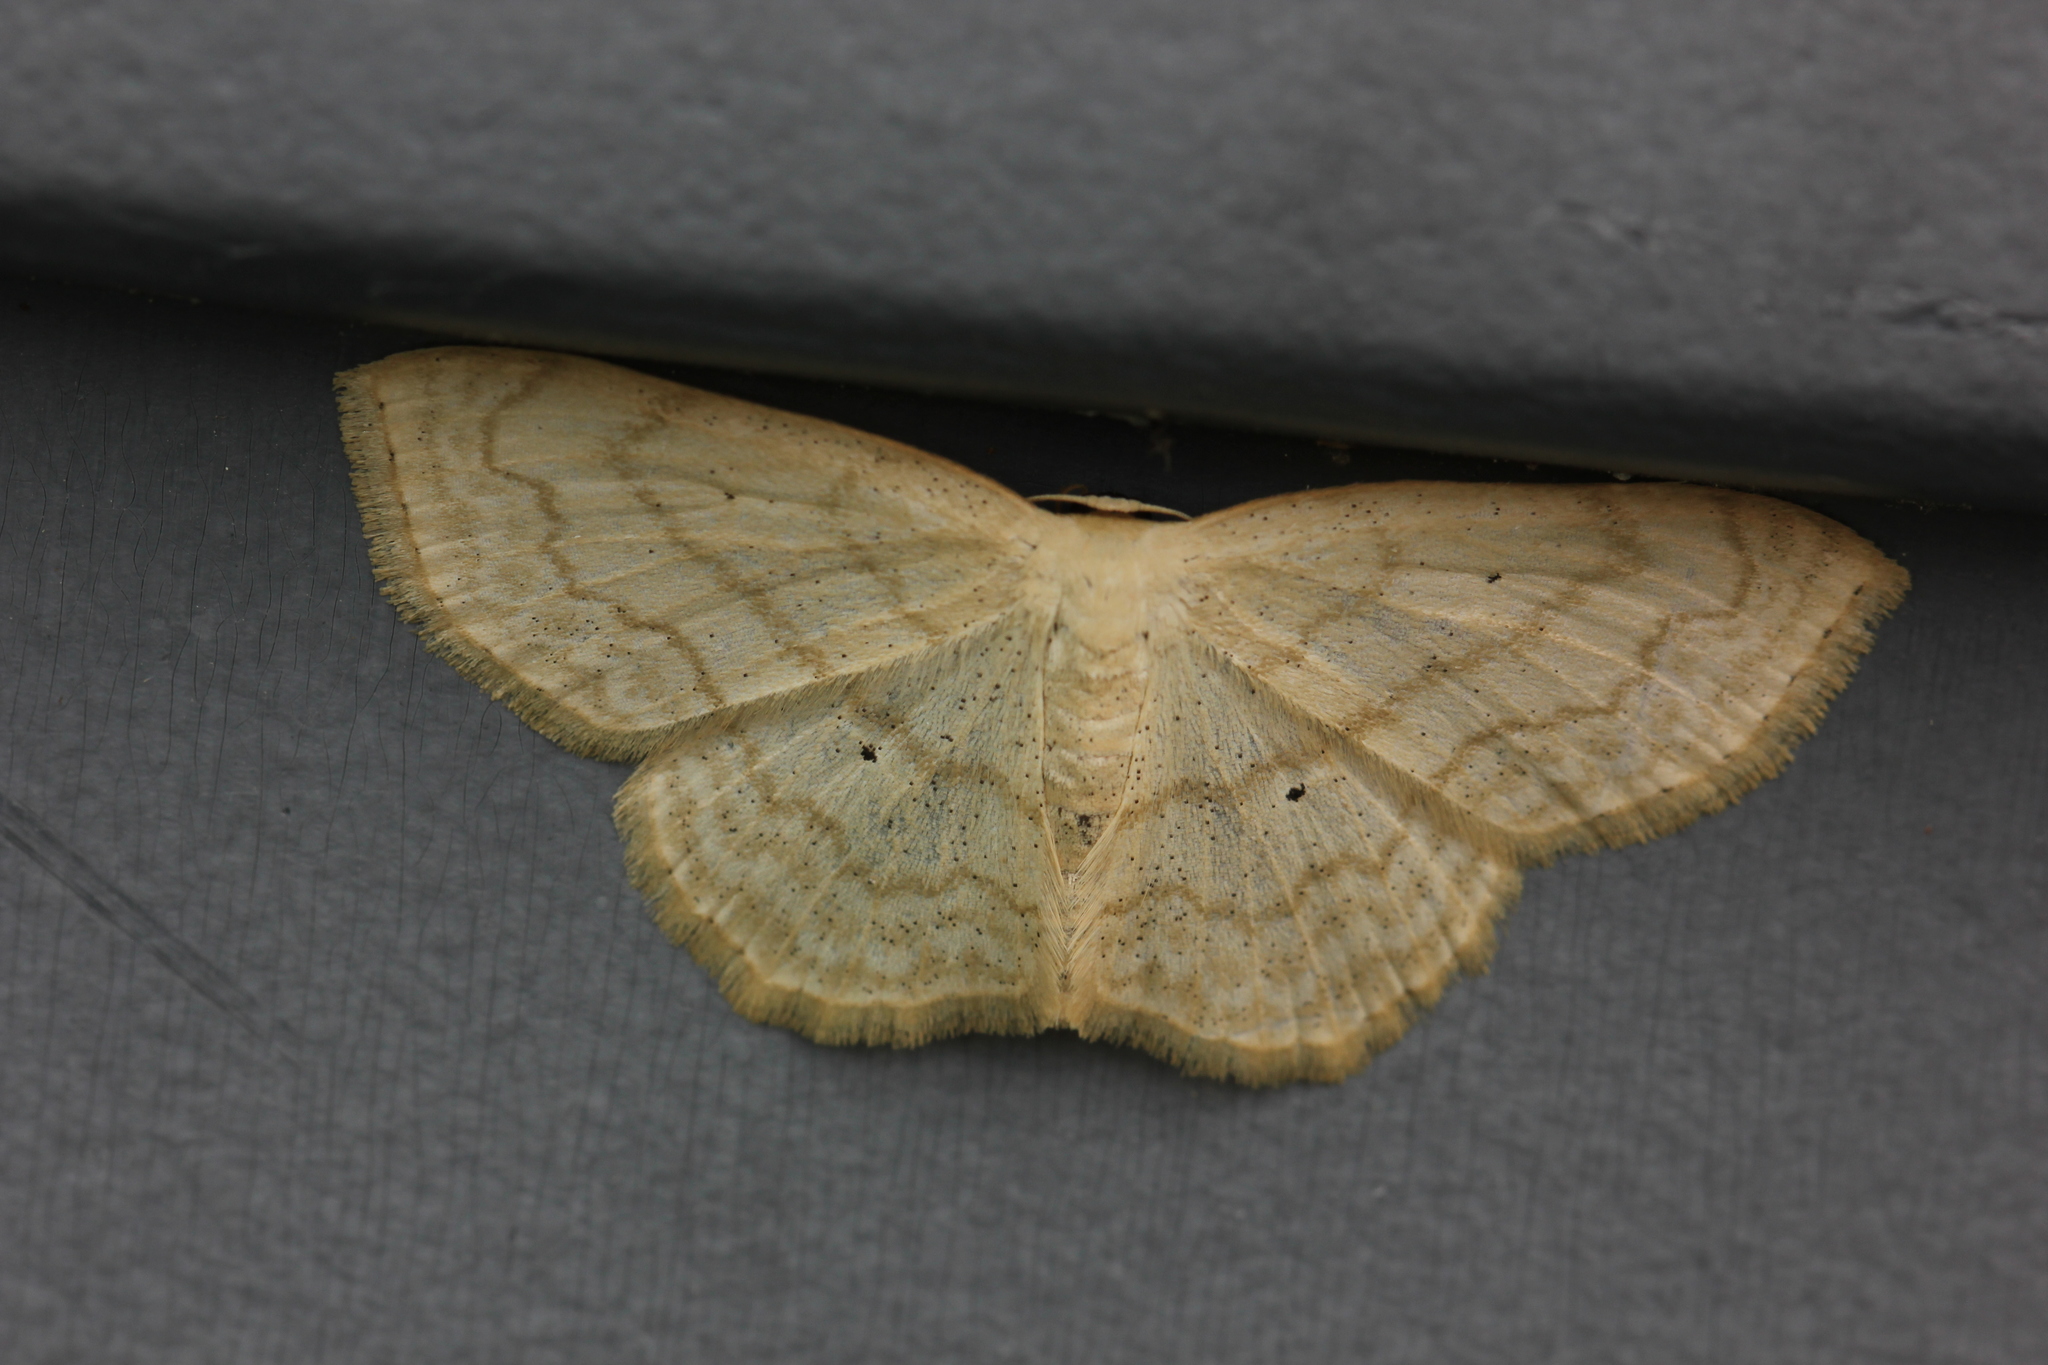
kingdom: Animalia
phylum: Arthropoda
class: Insecta
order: Lepidoptera
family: Geometridae
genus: Scopula
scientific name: Scopula limboundata
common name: Large lace border
